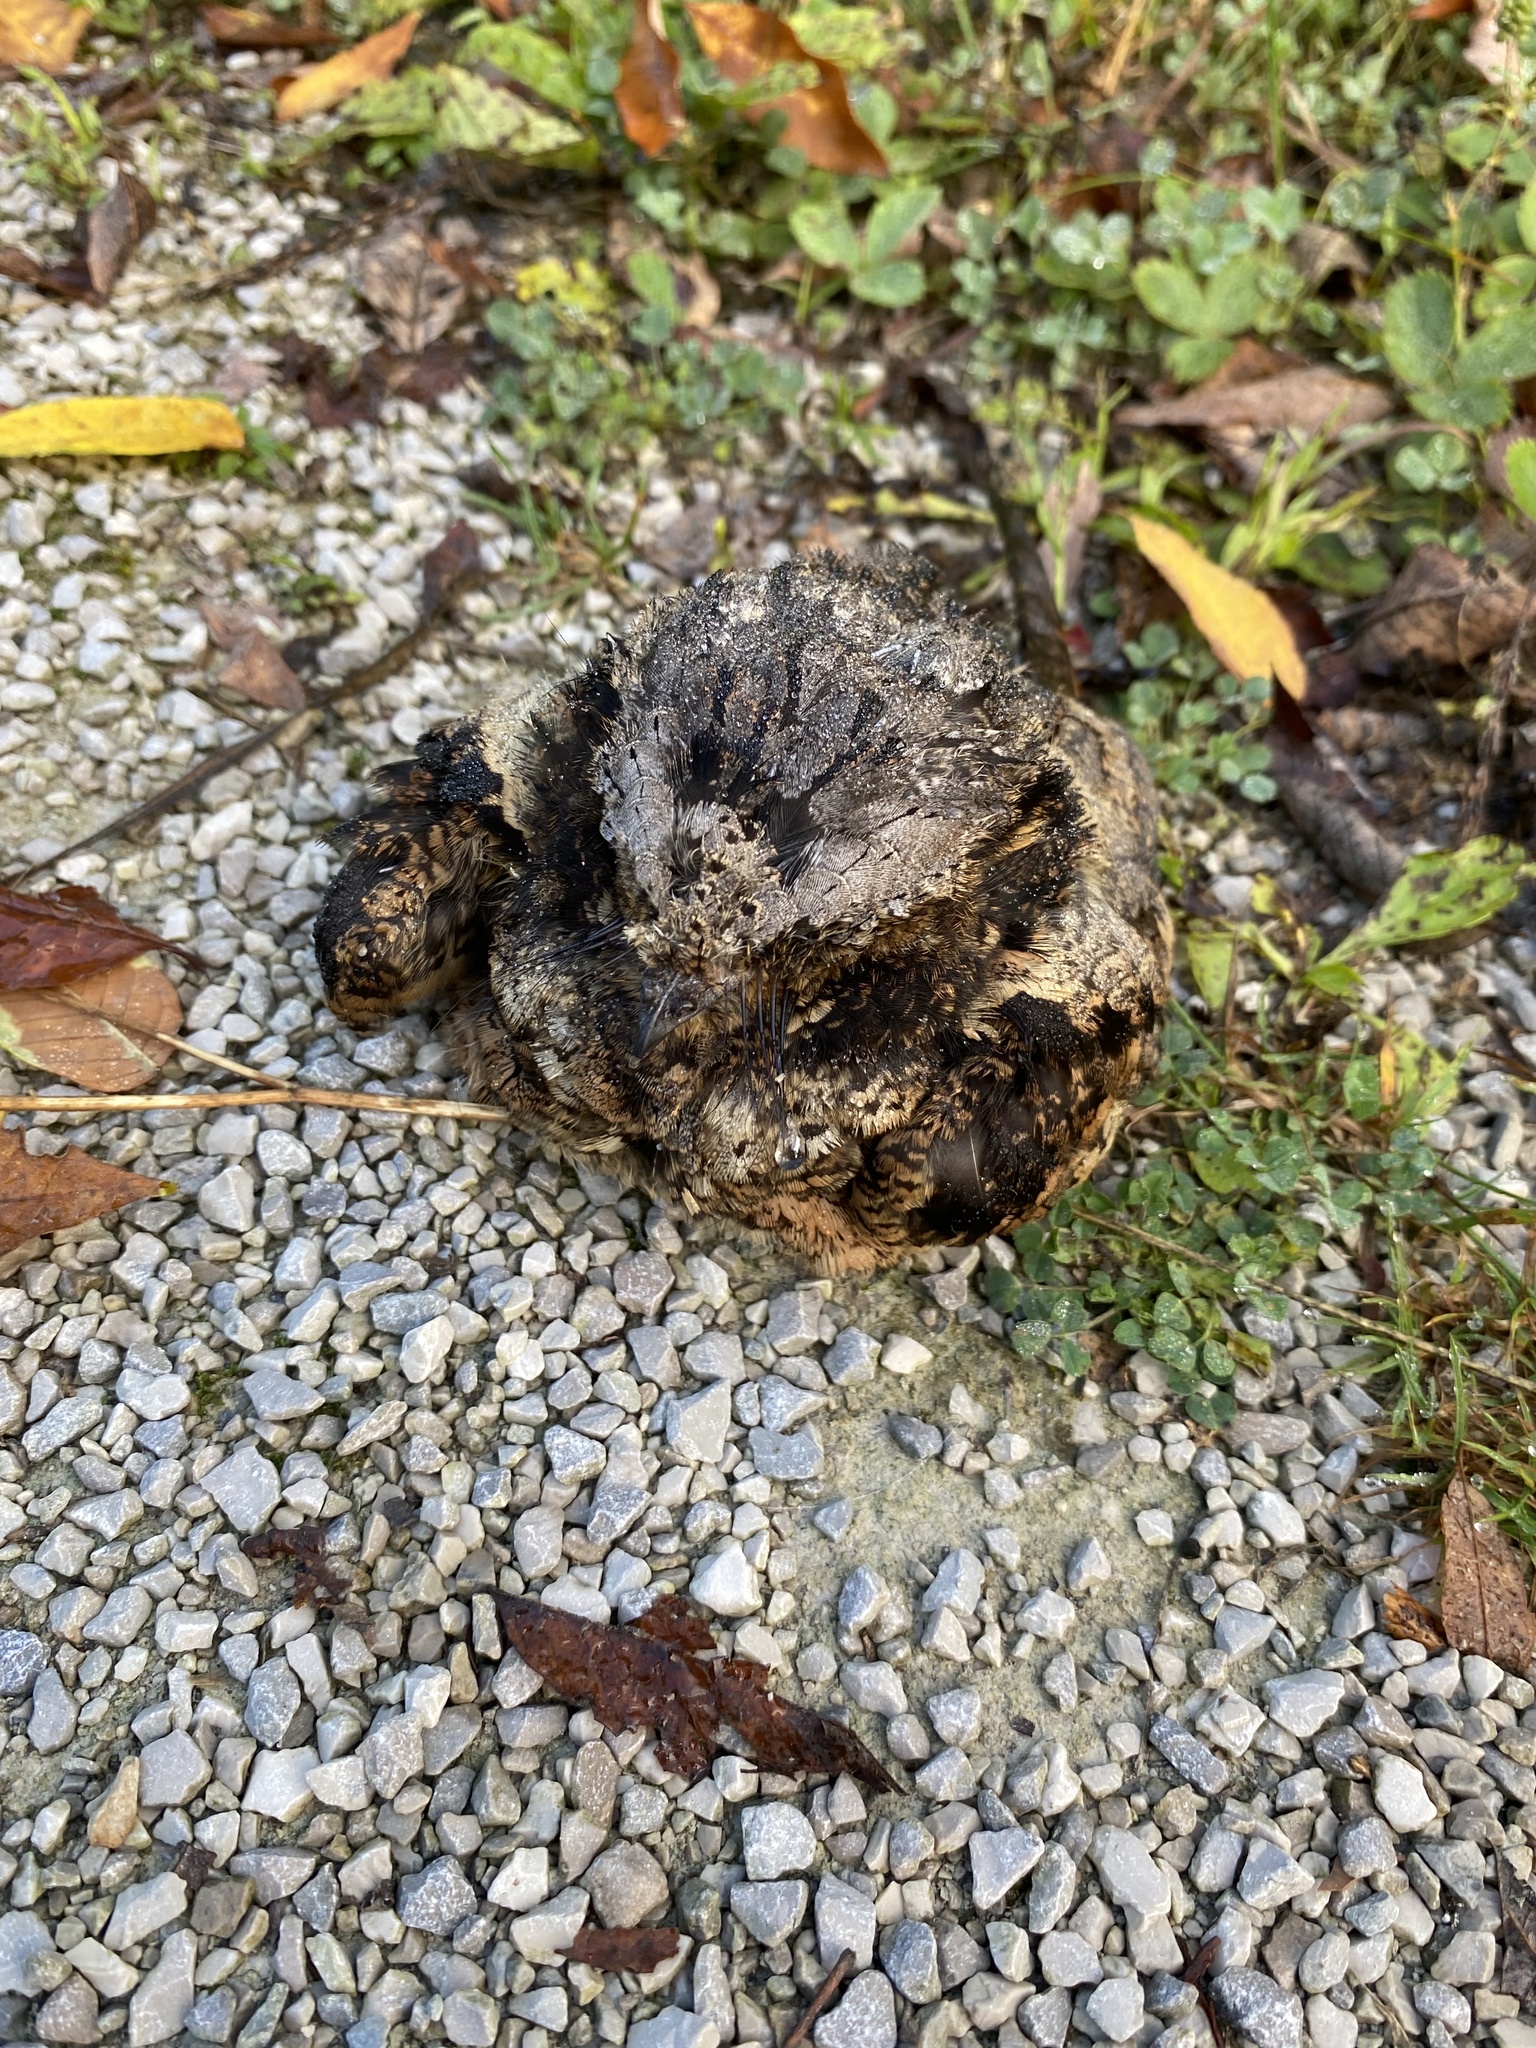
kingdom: Animalia
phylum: Chordata
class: Aves
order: Caprimulgiformes
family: Caprimulgidae
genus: Antrostomus
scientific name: Antrostomus vociferus
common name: Eastern whip-poor-will
